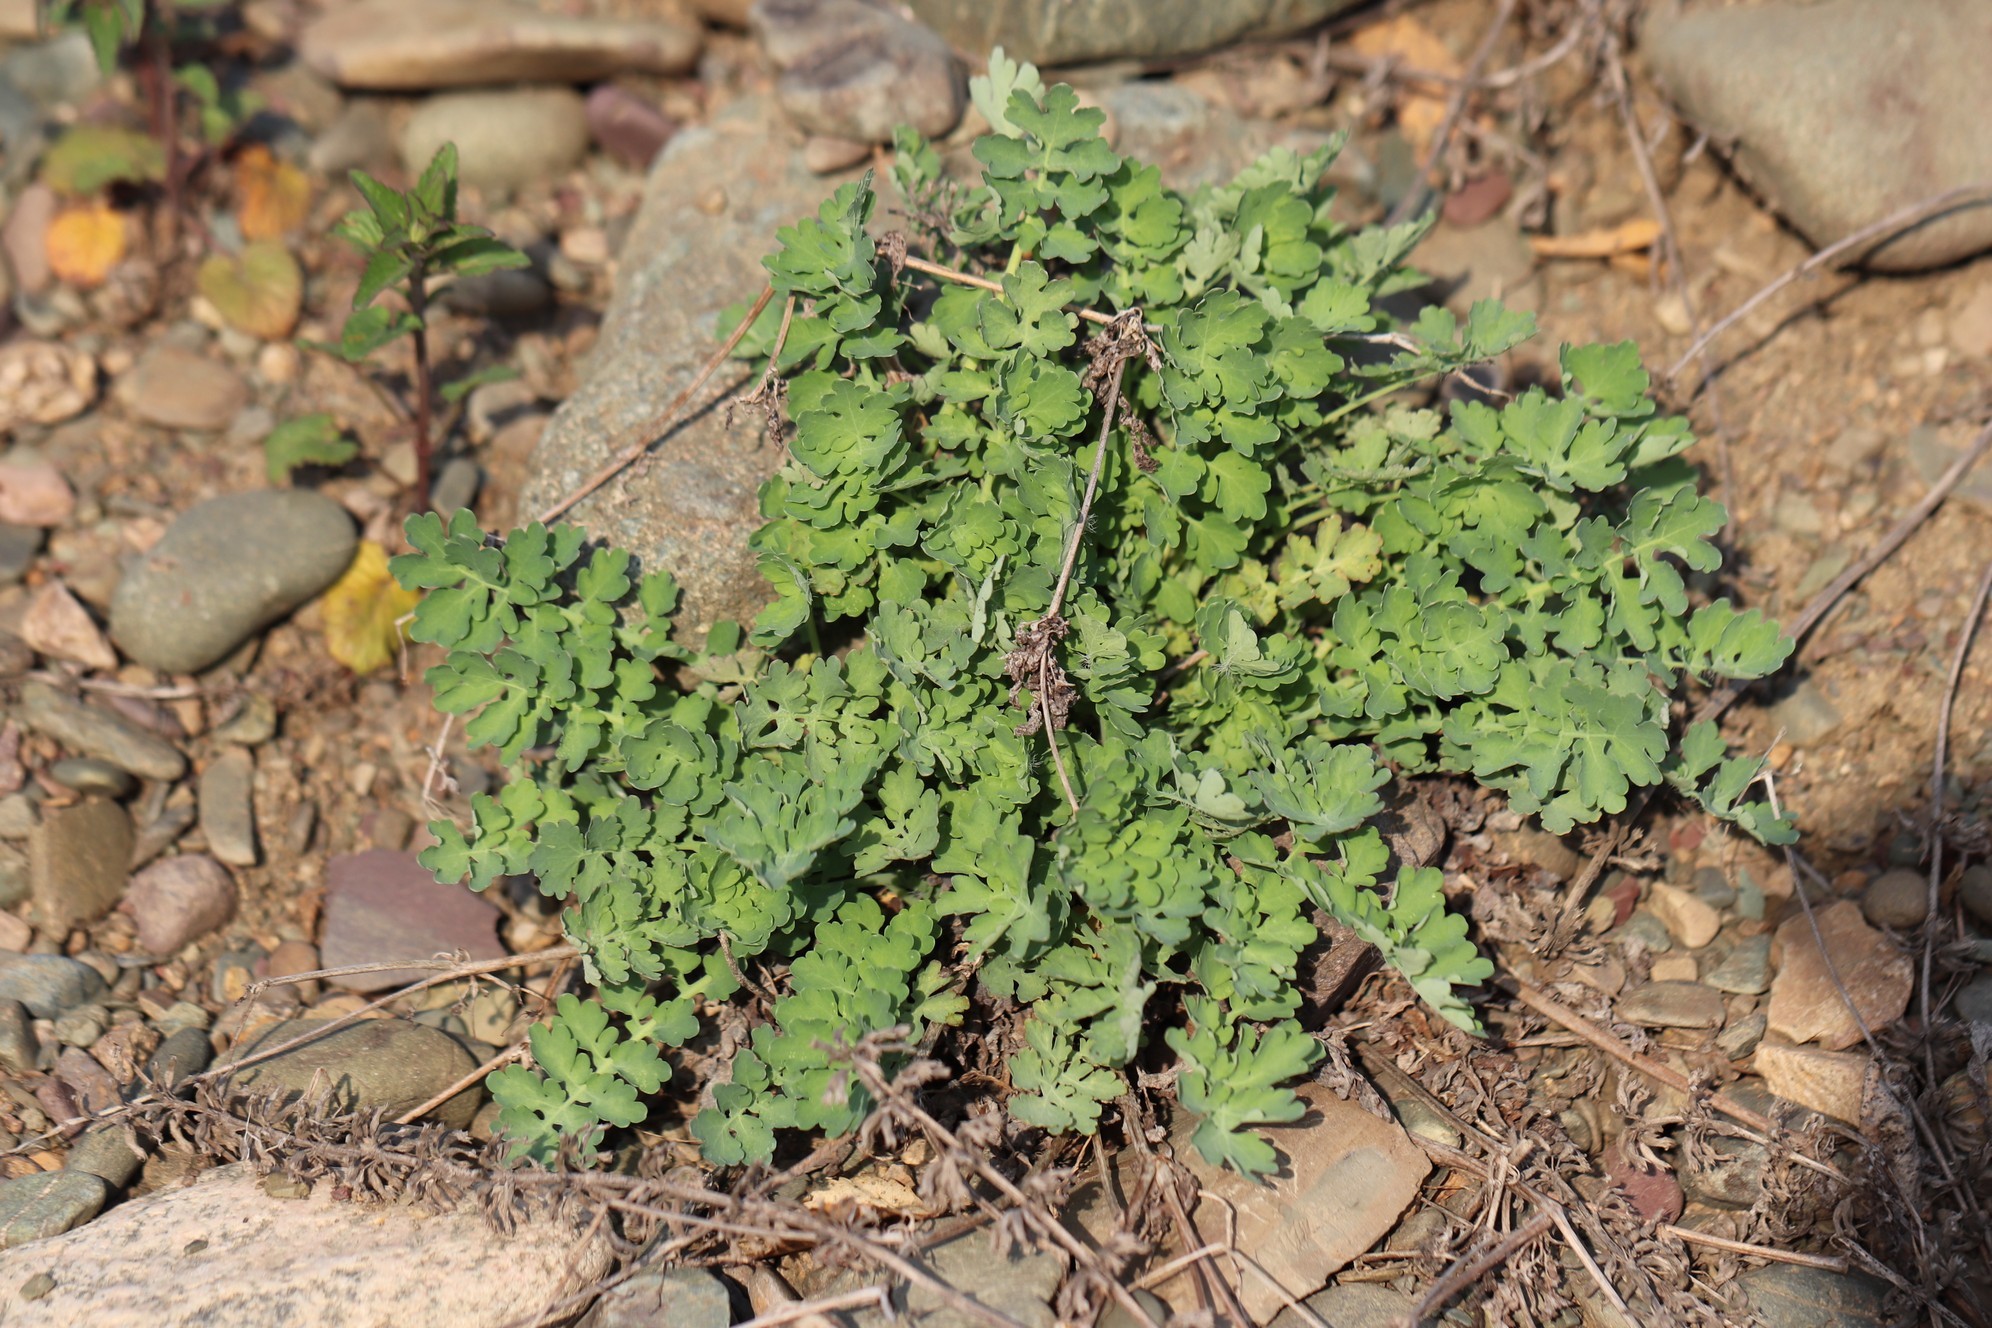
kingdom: Plantae
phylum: Tracheophyta
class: Magnoliopsida
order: Ranunculales
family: Papaveraceae
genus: Chelidonium
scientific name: Chelidonium majus
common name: Greater celandine
